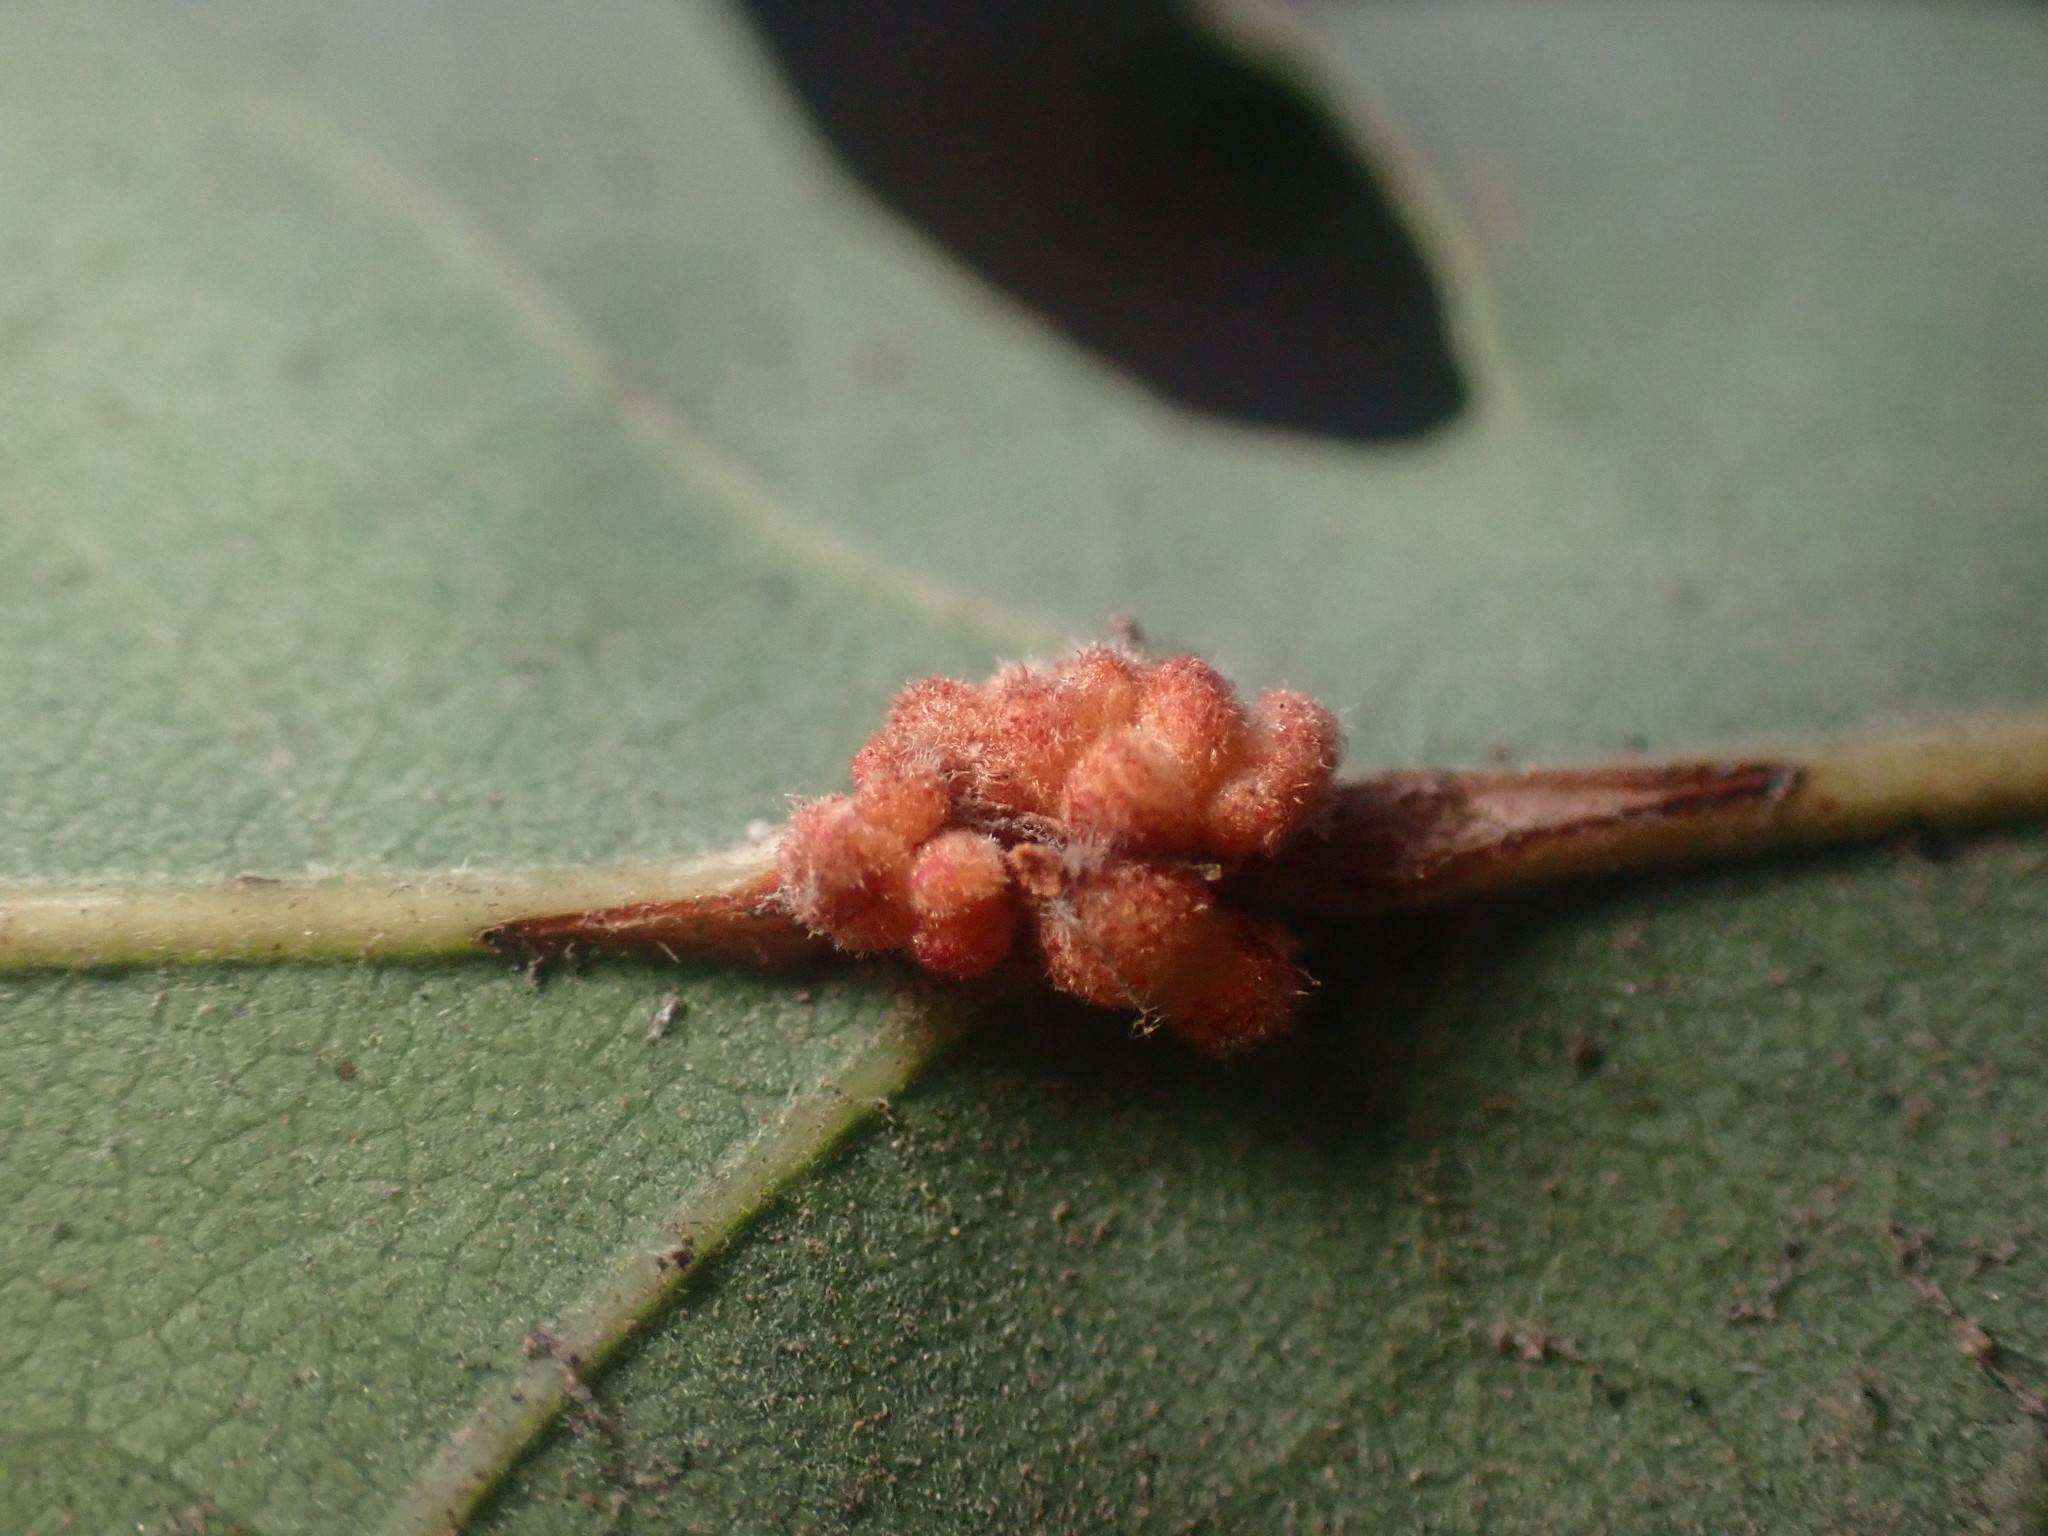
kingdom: Animalia
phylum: Arthropoda
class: Insecta
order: Hymenoptera
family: Cynipidae
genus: Andricus
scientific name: Andricus
